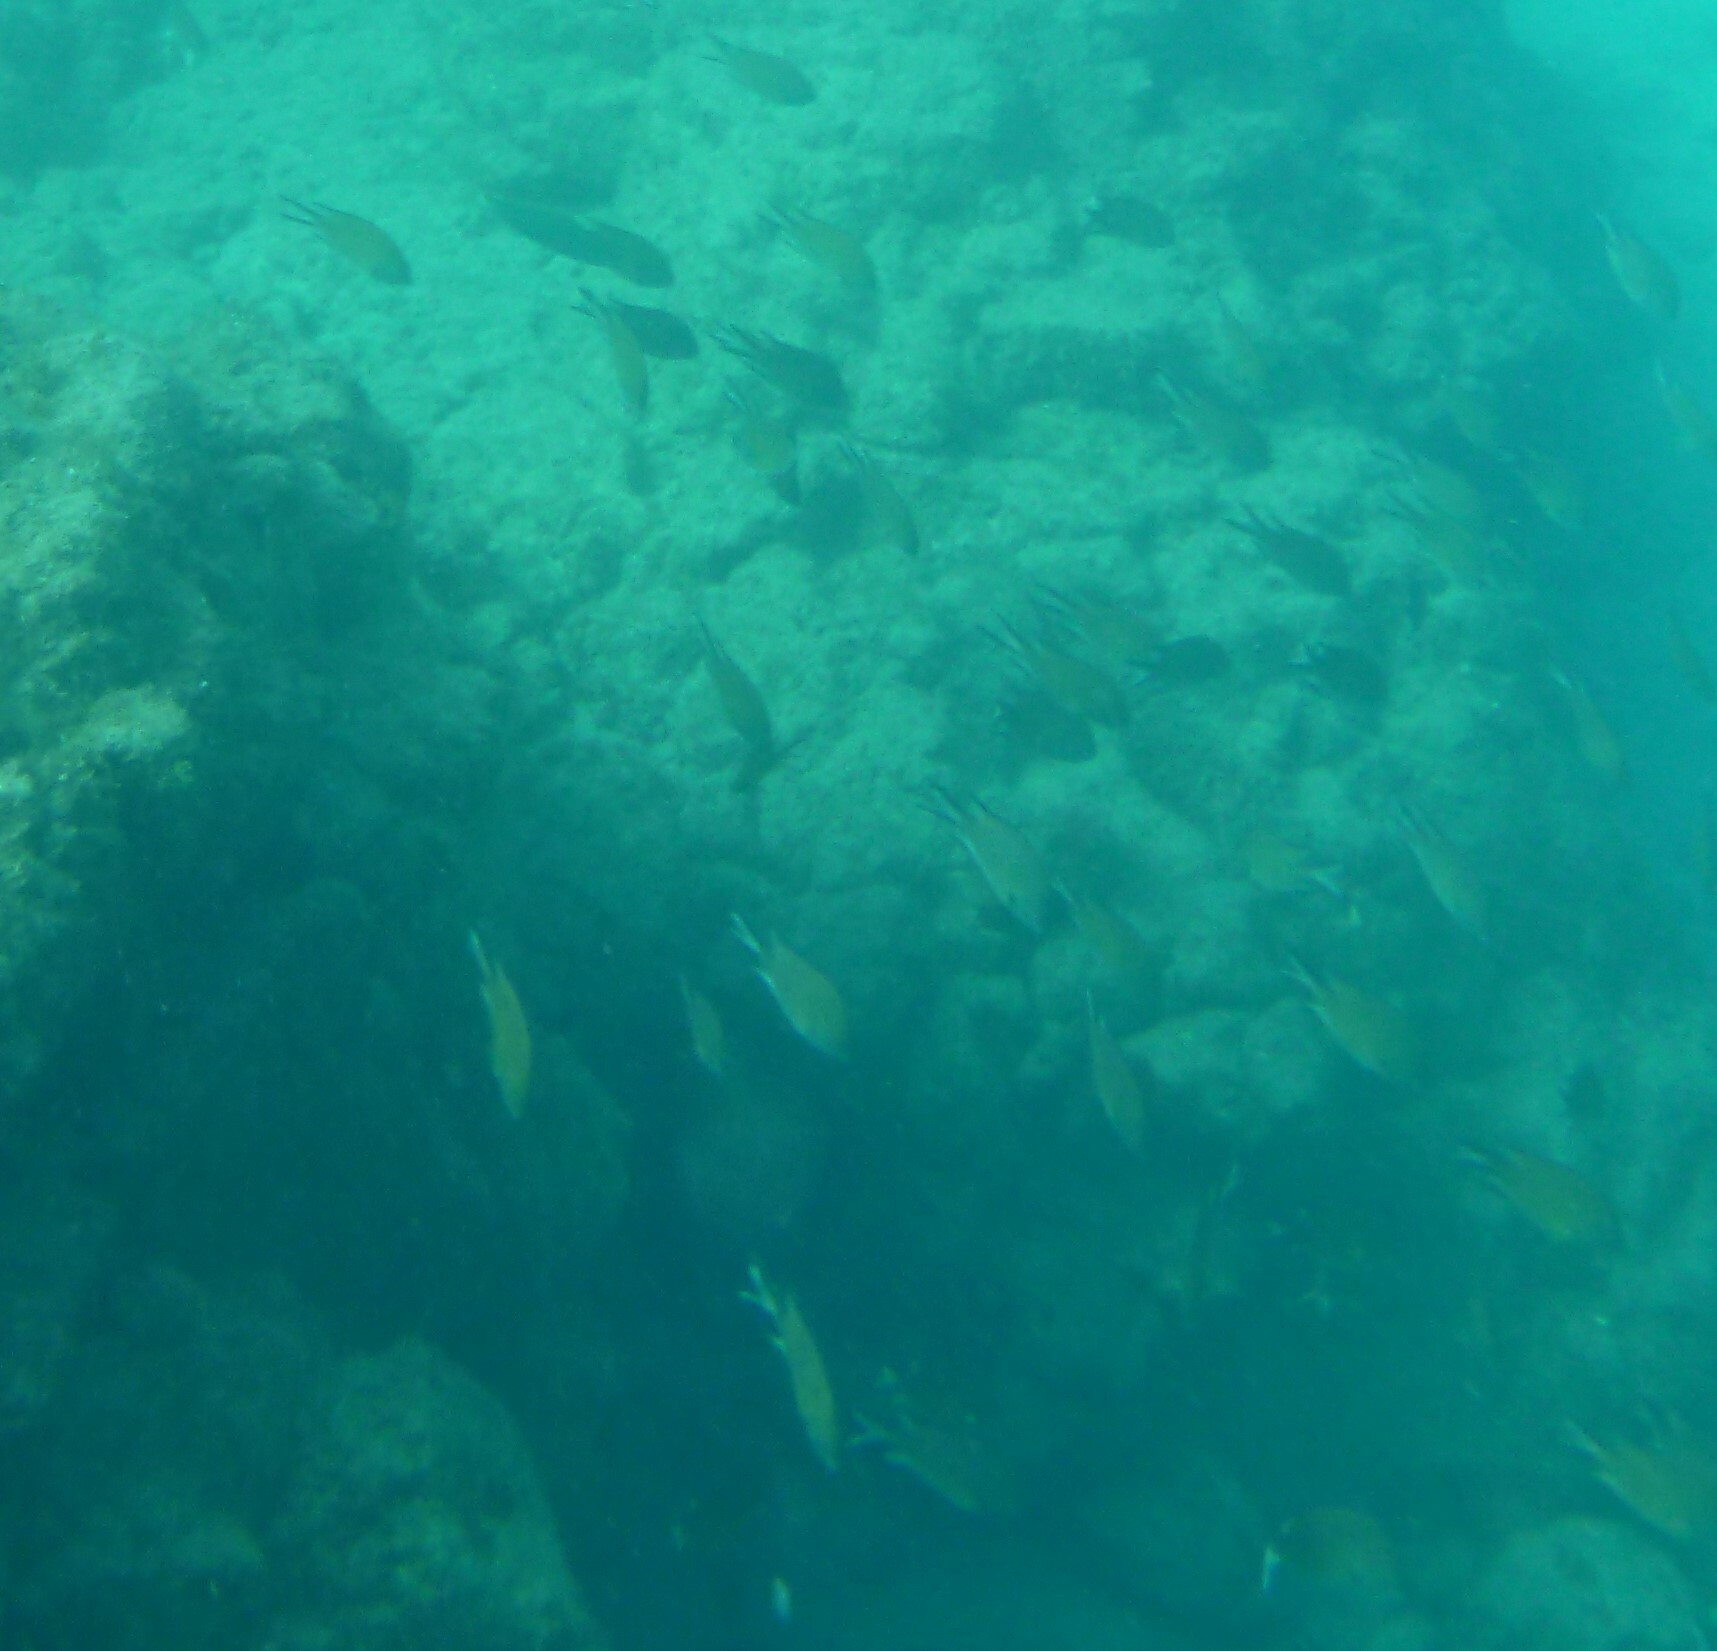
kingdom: Animalia
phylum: Chordata
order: Perciformes
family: Pomacentridae
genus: Chromis
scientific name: Chromis limbata
